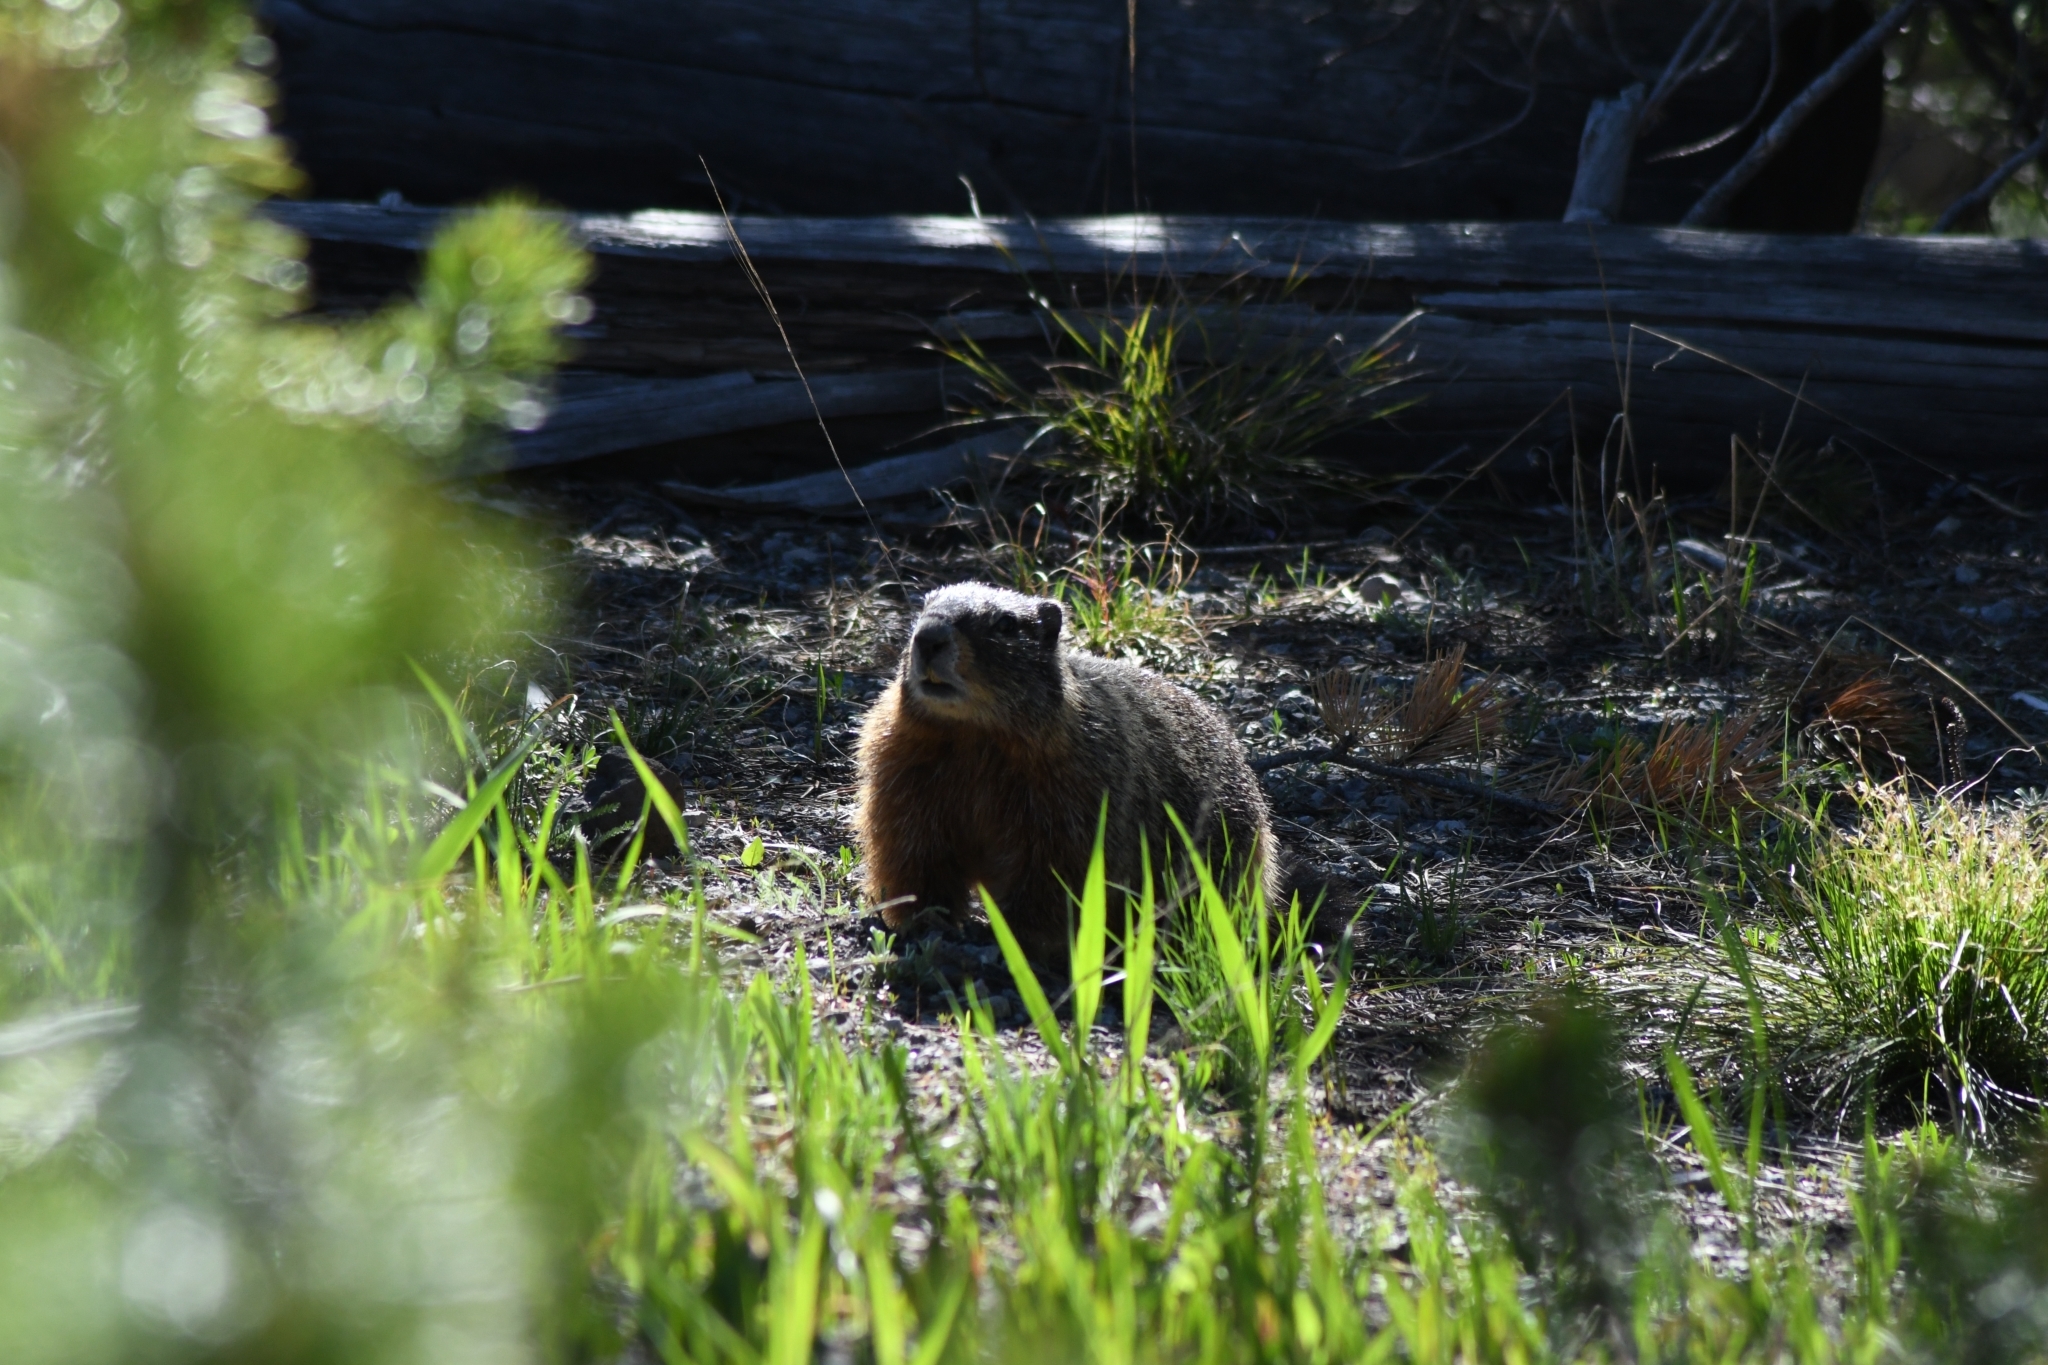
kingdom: Animalia
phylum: Chordata
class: Mammalia
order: Rodentia
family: Sciuridae
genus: Marmota
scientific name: Marmota flaviventris
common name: Yellow-bellied marmot
